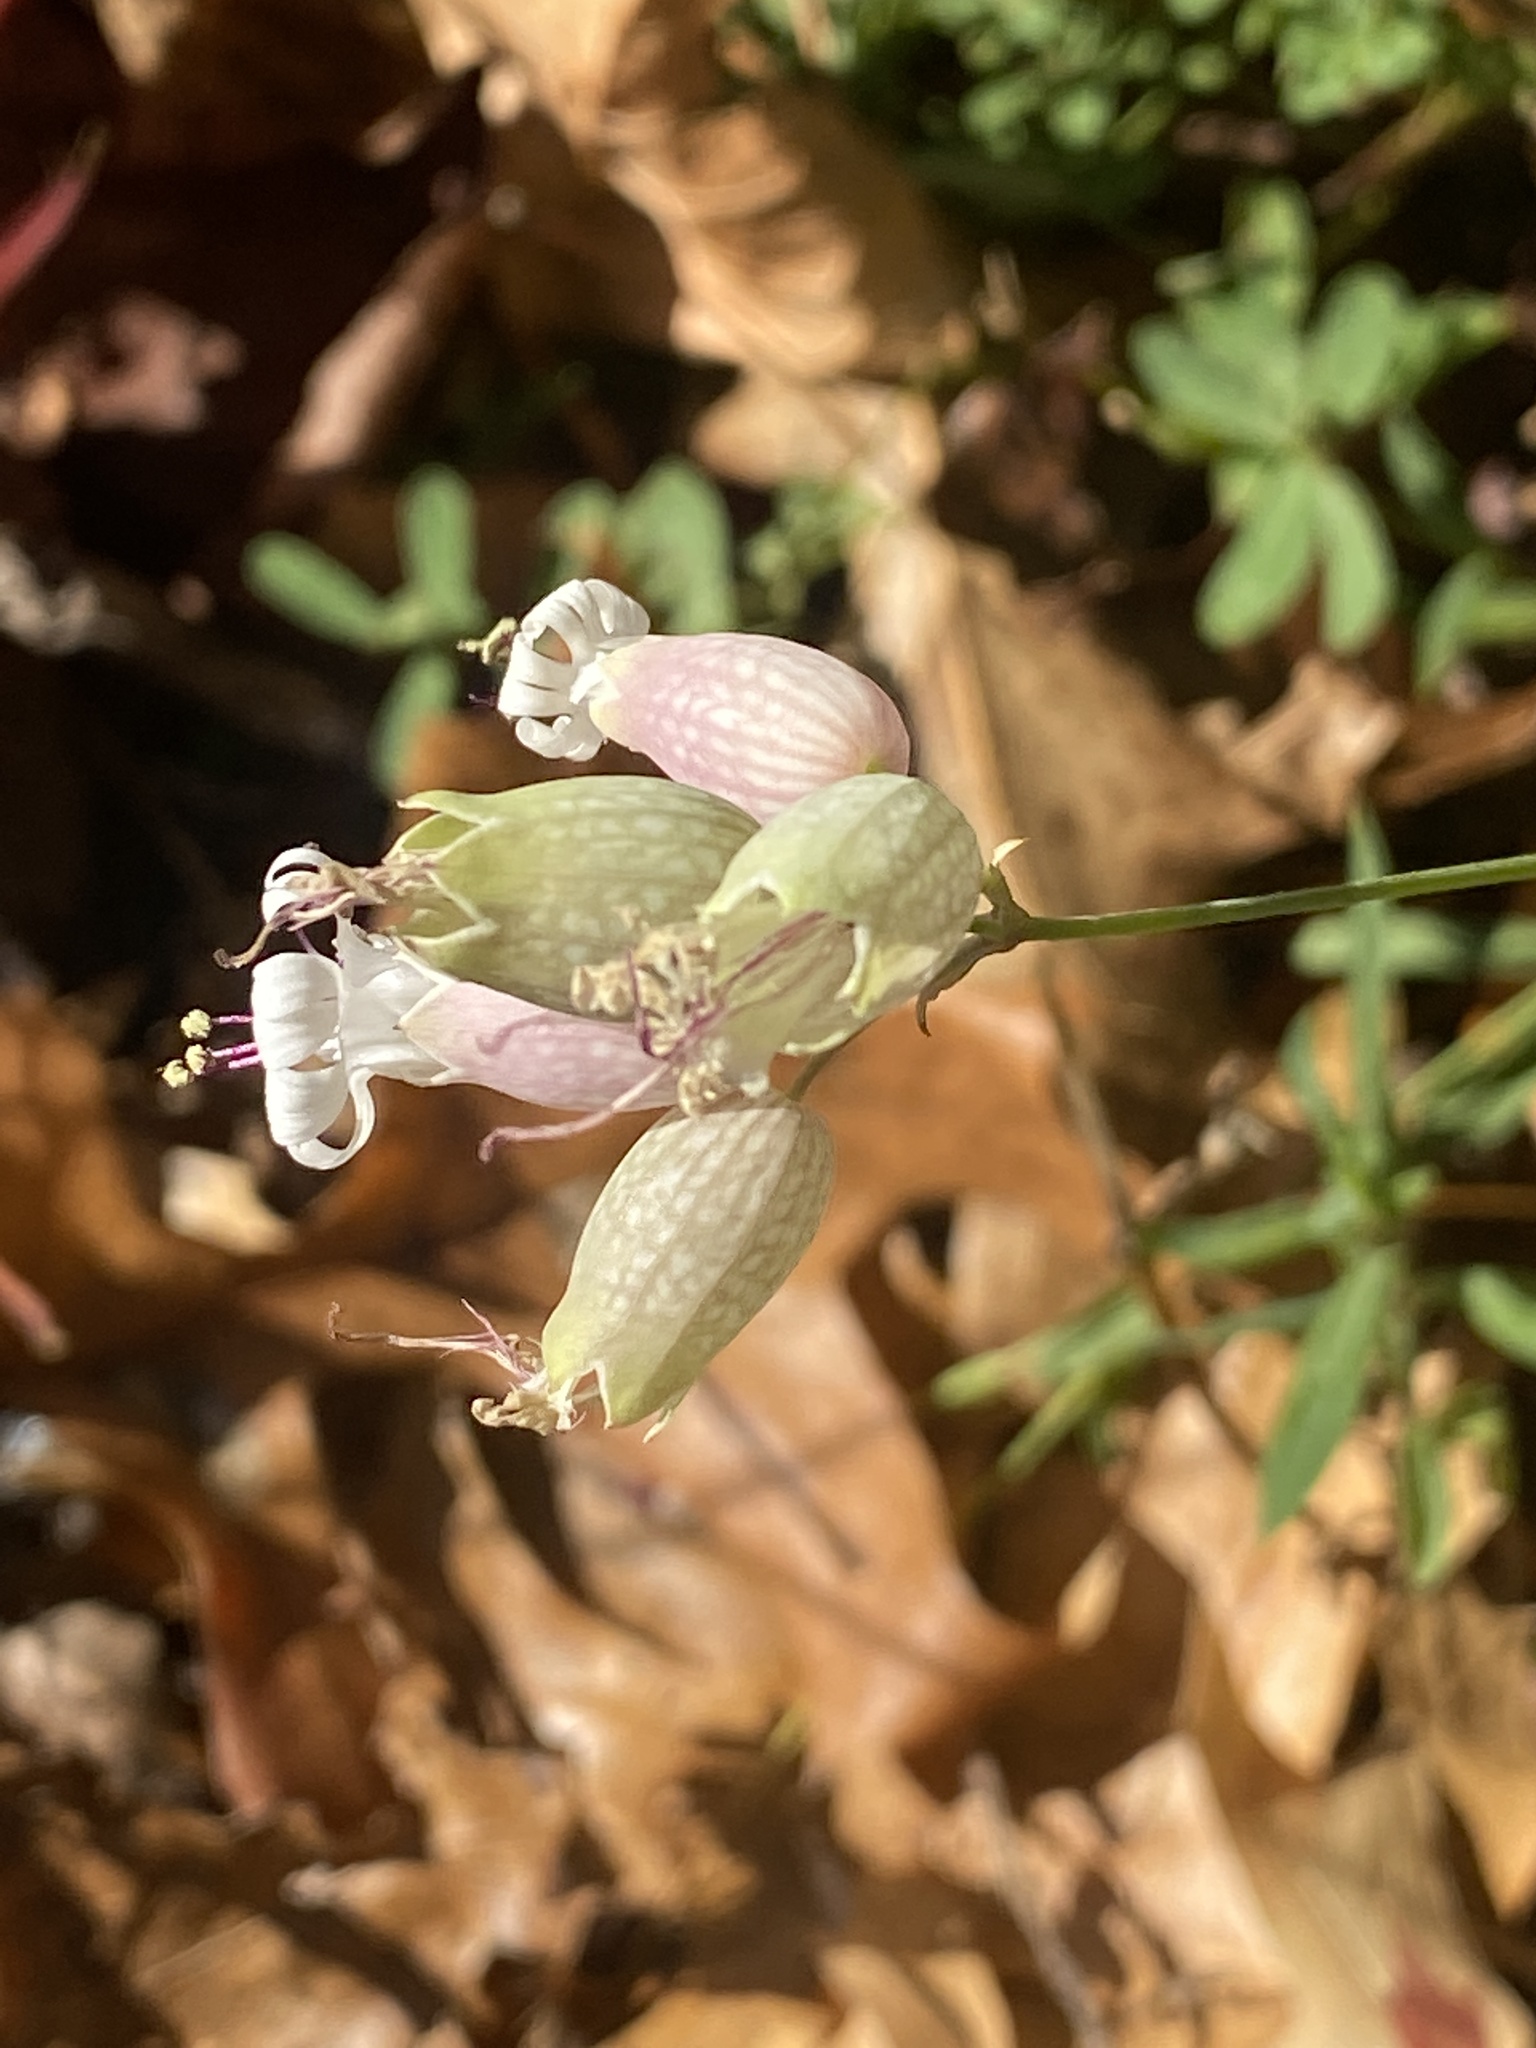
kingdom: Plantae
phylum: Tracheophyta
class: Magnoliopsida
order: Caryophyllales
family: Caryophyllaceae
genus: Silene
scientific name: Silene vulgaris
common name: Bladder campion
